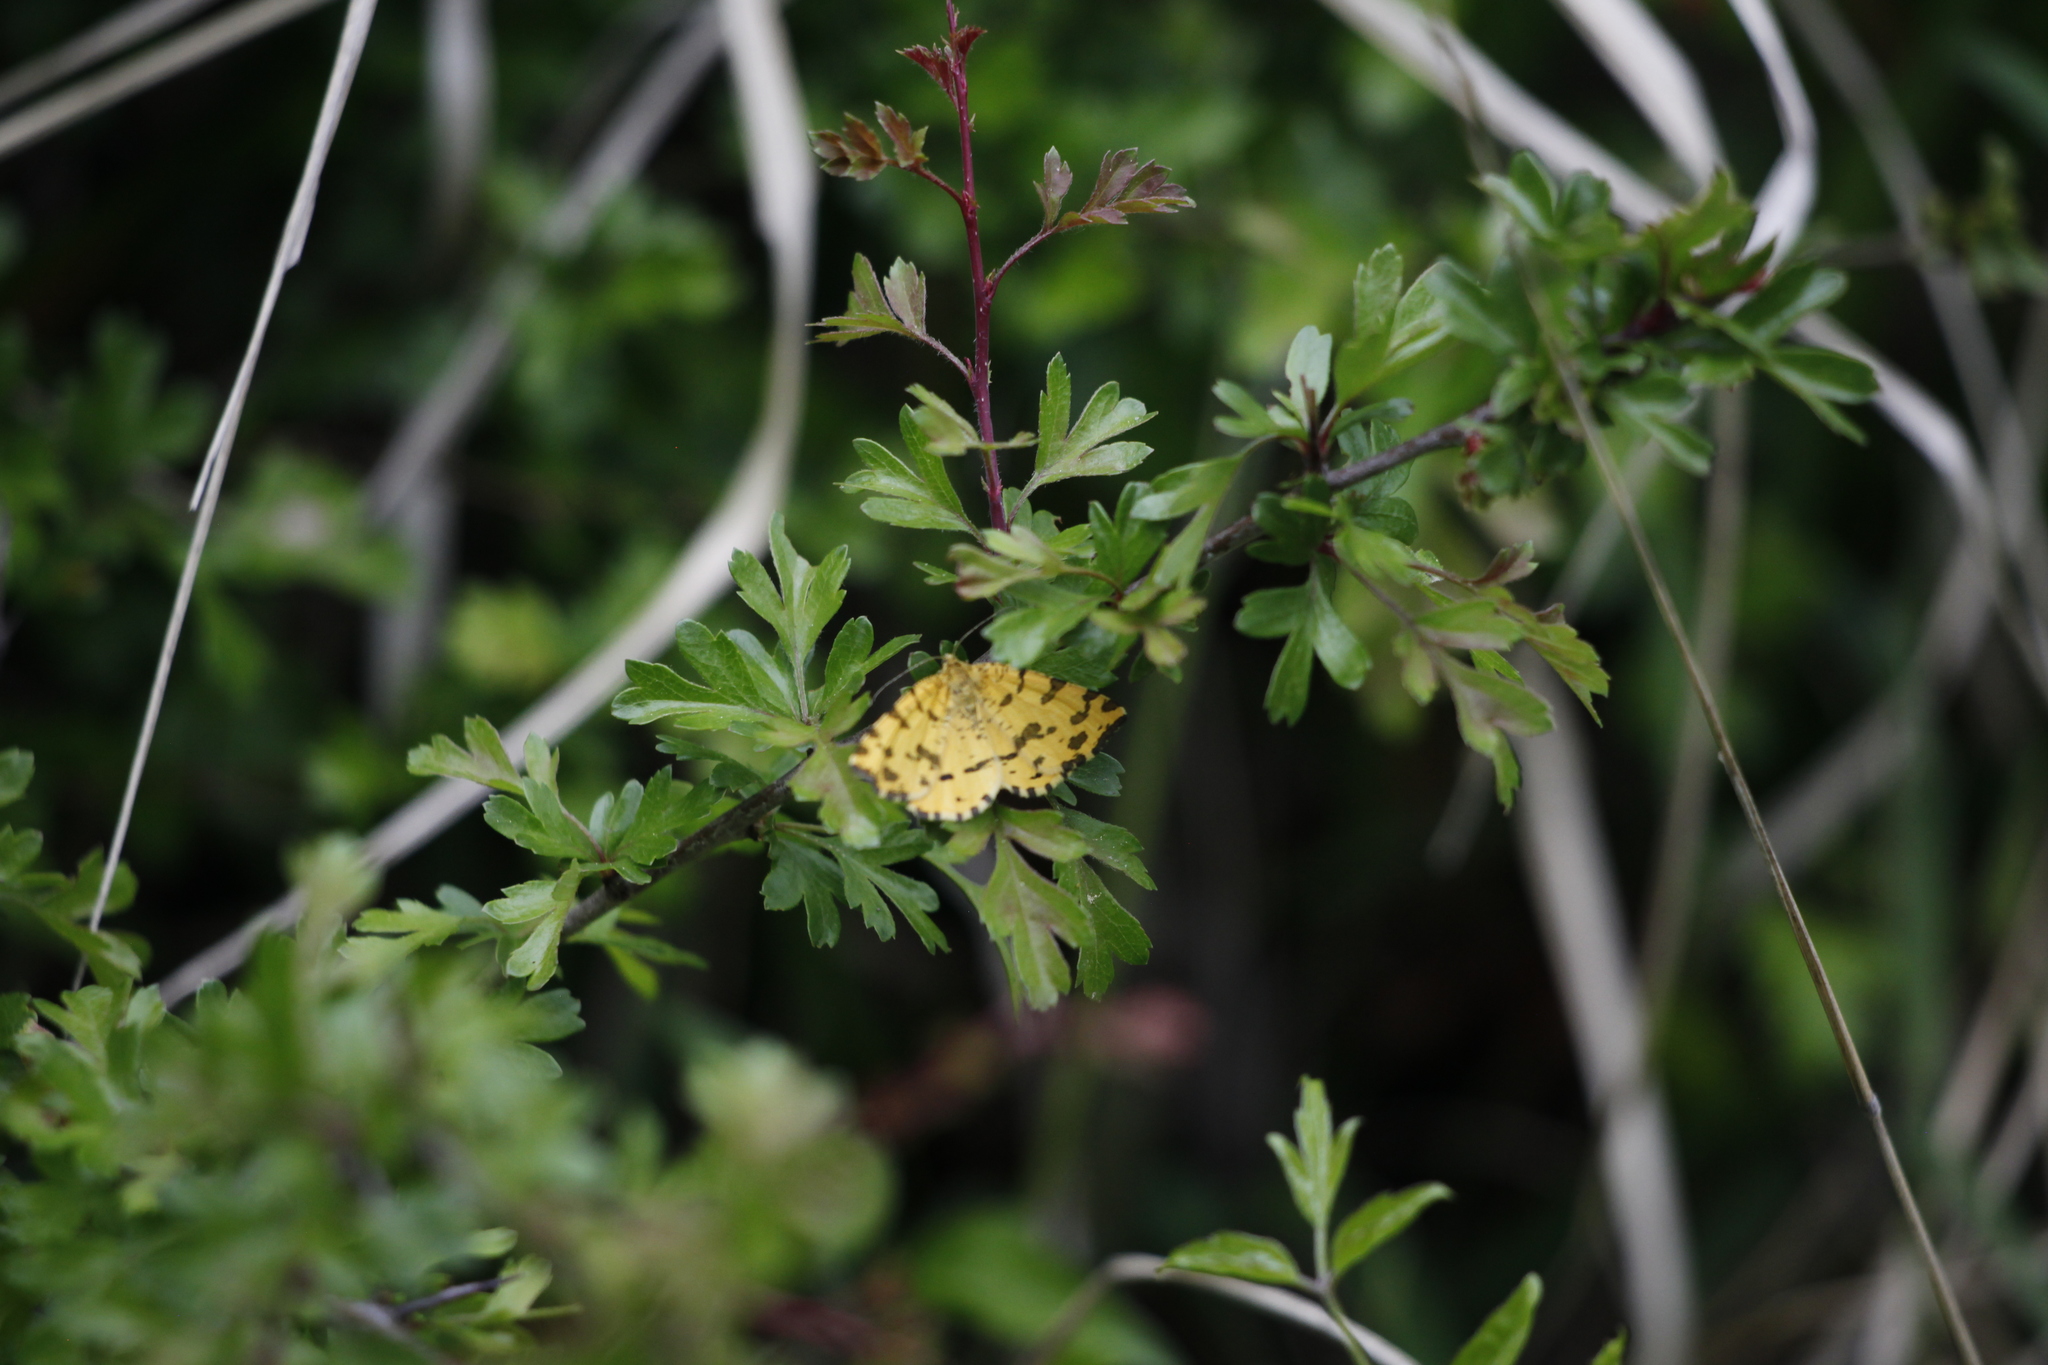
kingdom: Animalia
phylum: Arthropoda
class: Insecta
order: Lepidoptera
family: Geometridae
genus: Pseudopanthera
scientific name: Pseudopanthera macularia
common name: Speckled yellow
